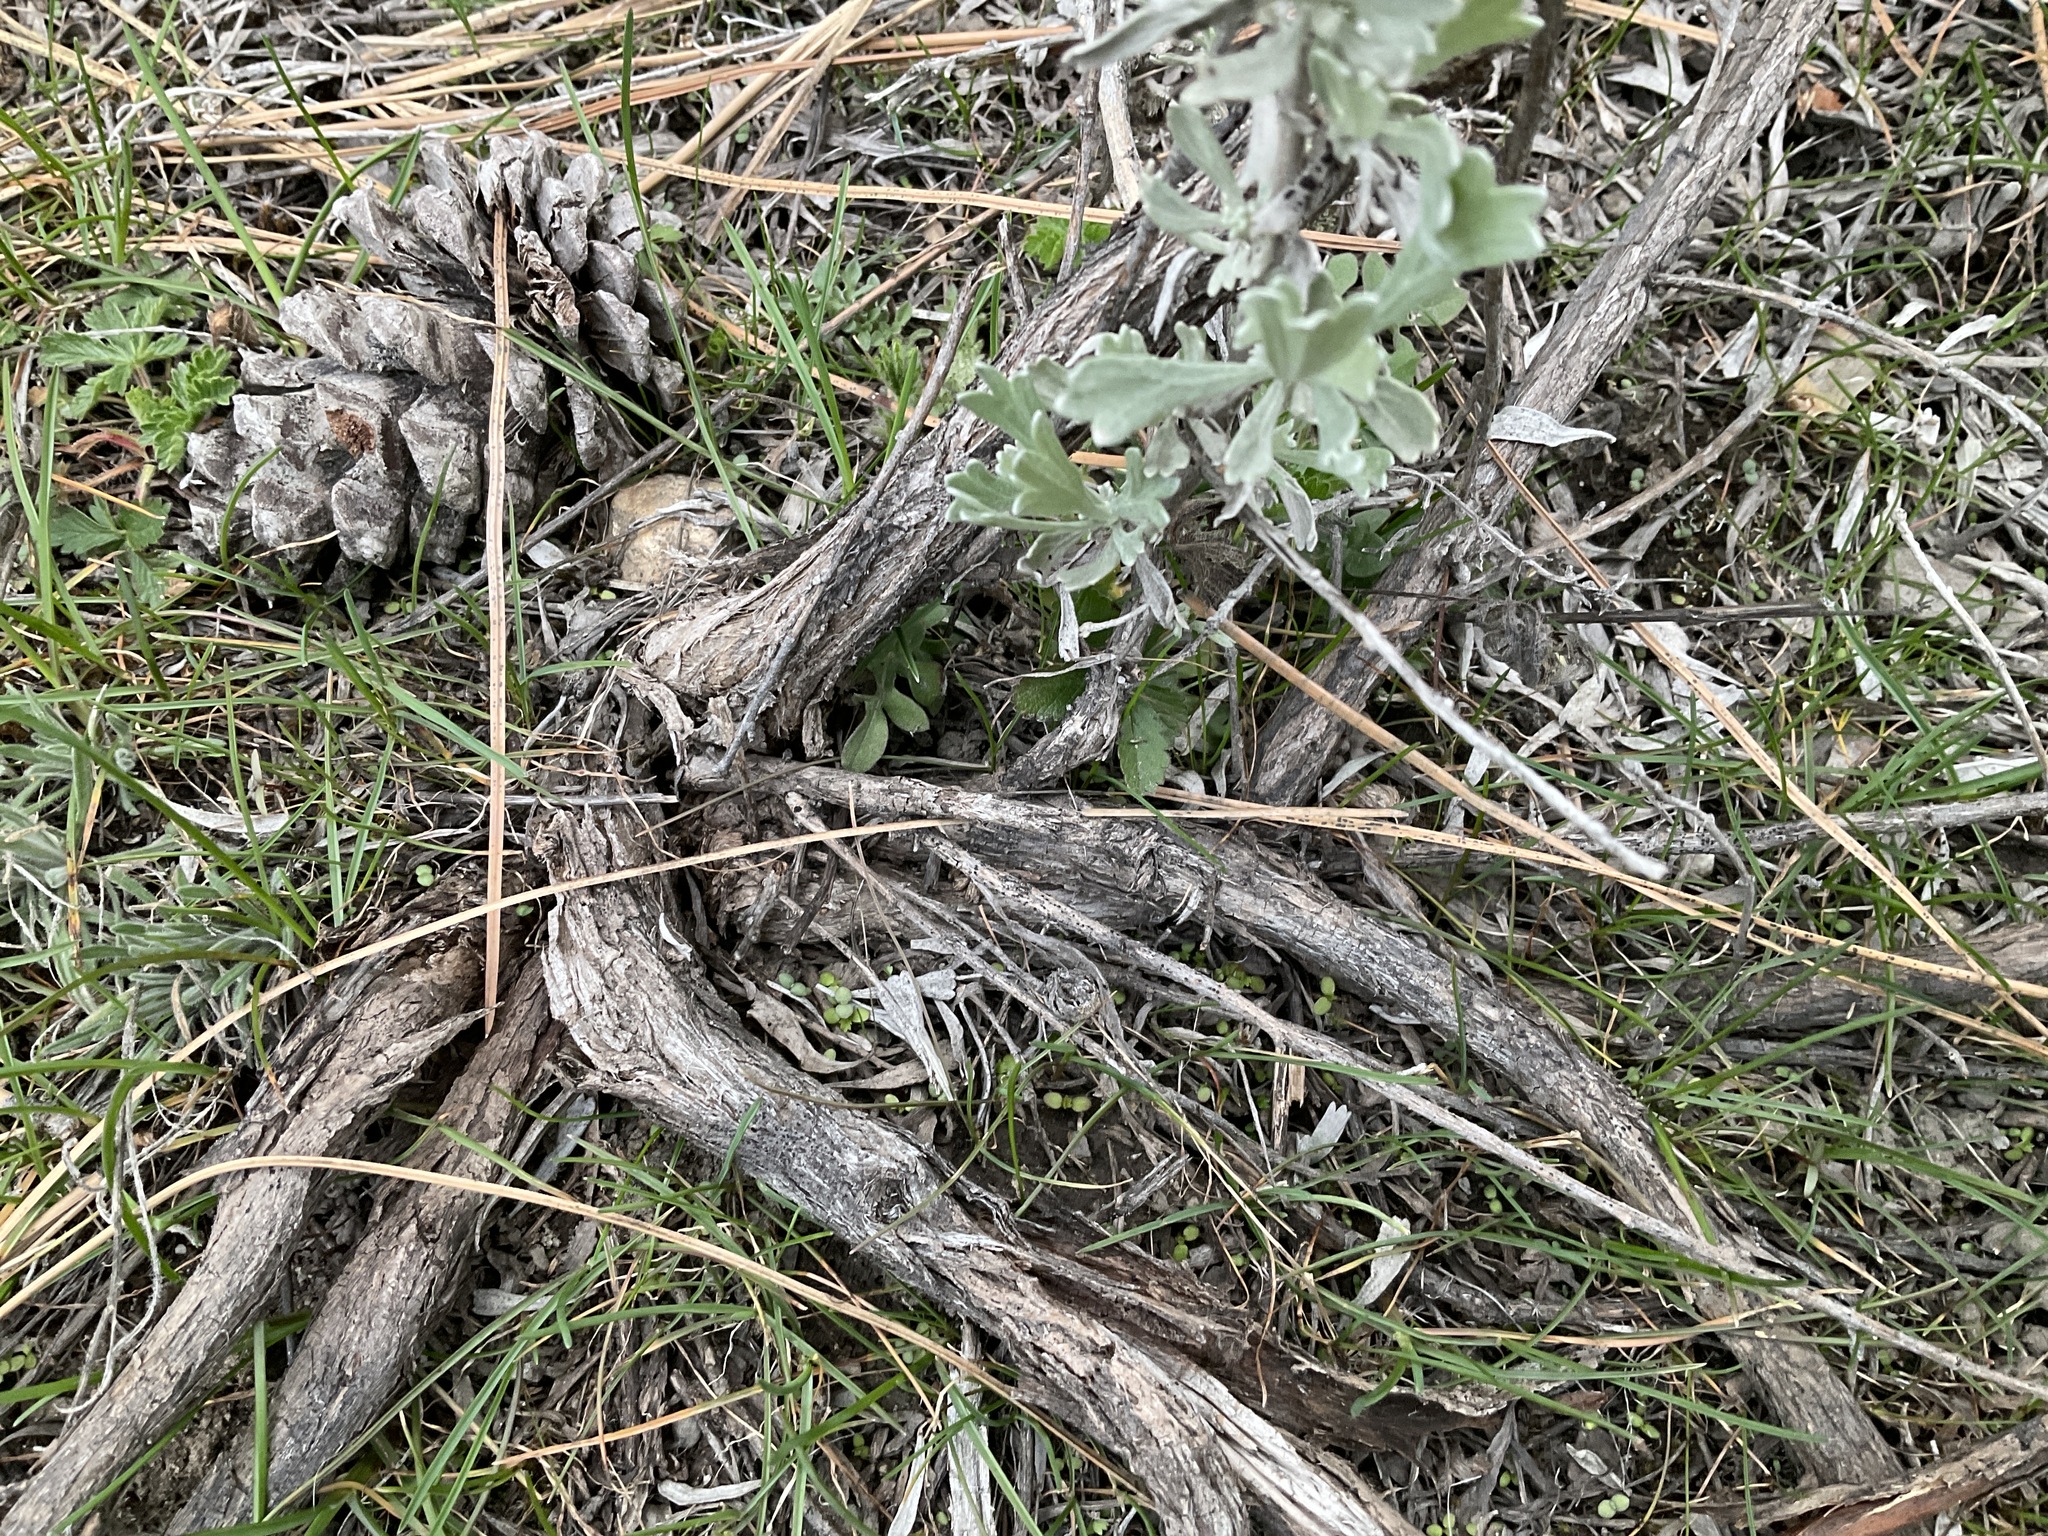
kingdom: Plantae
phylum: Tracheophyta
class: Magnoliopsida
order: Asterales
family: Asteraceae
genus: Artemisia
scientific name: Artemisia tridentata
